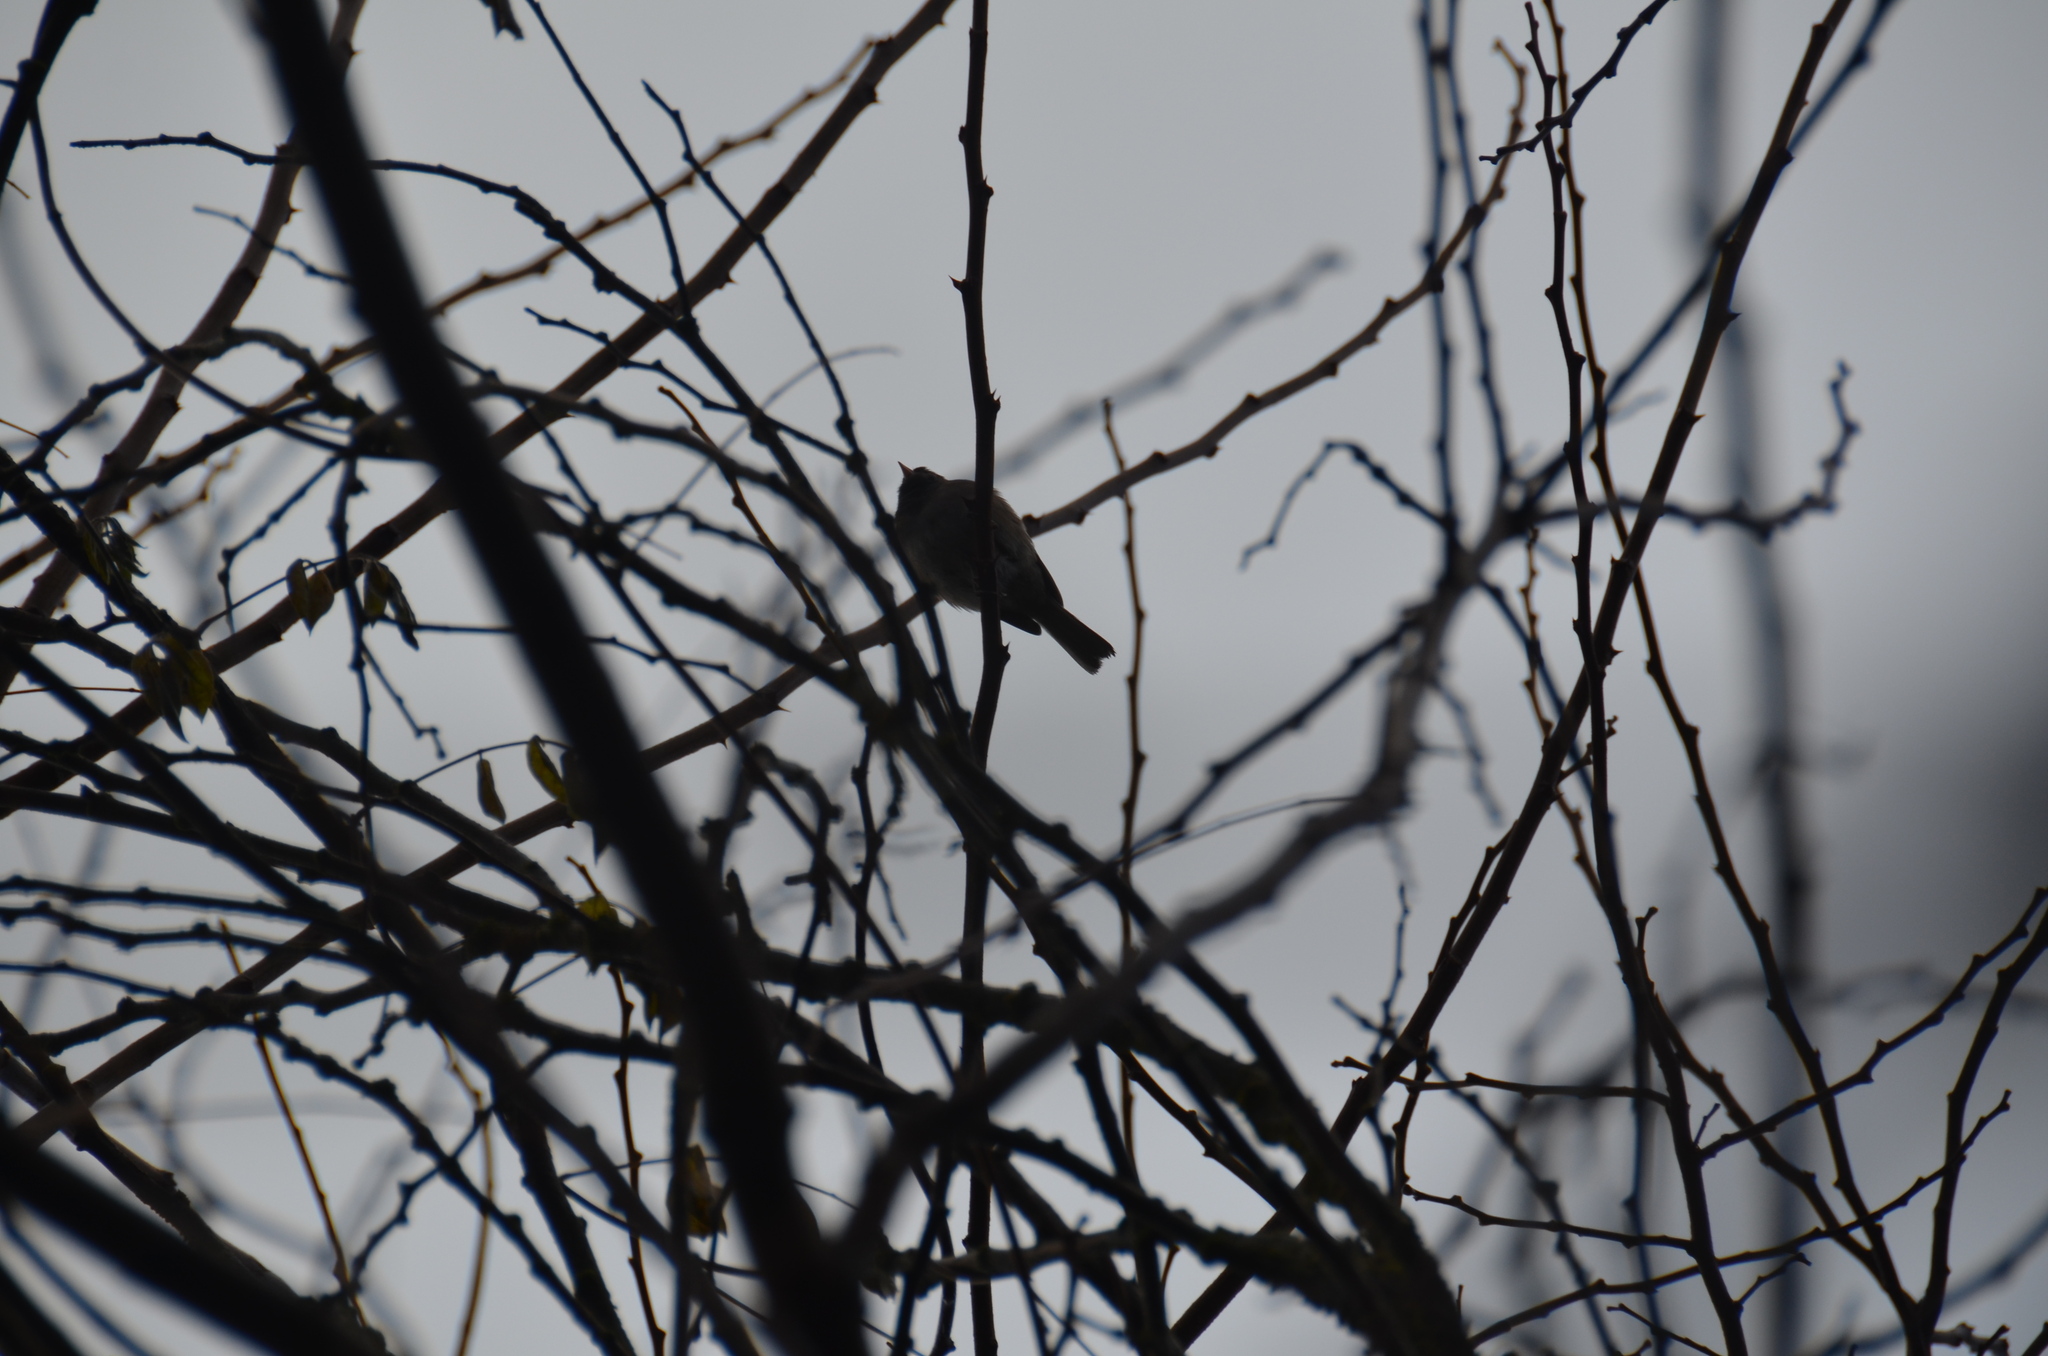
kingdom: Animalia
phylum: Chordata
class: Aves
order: Passeriformes
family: Passerellidae
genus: Junco
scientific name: Junco hyemalis
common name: Dark-eyed junco
